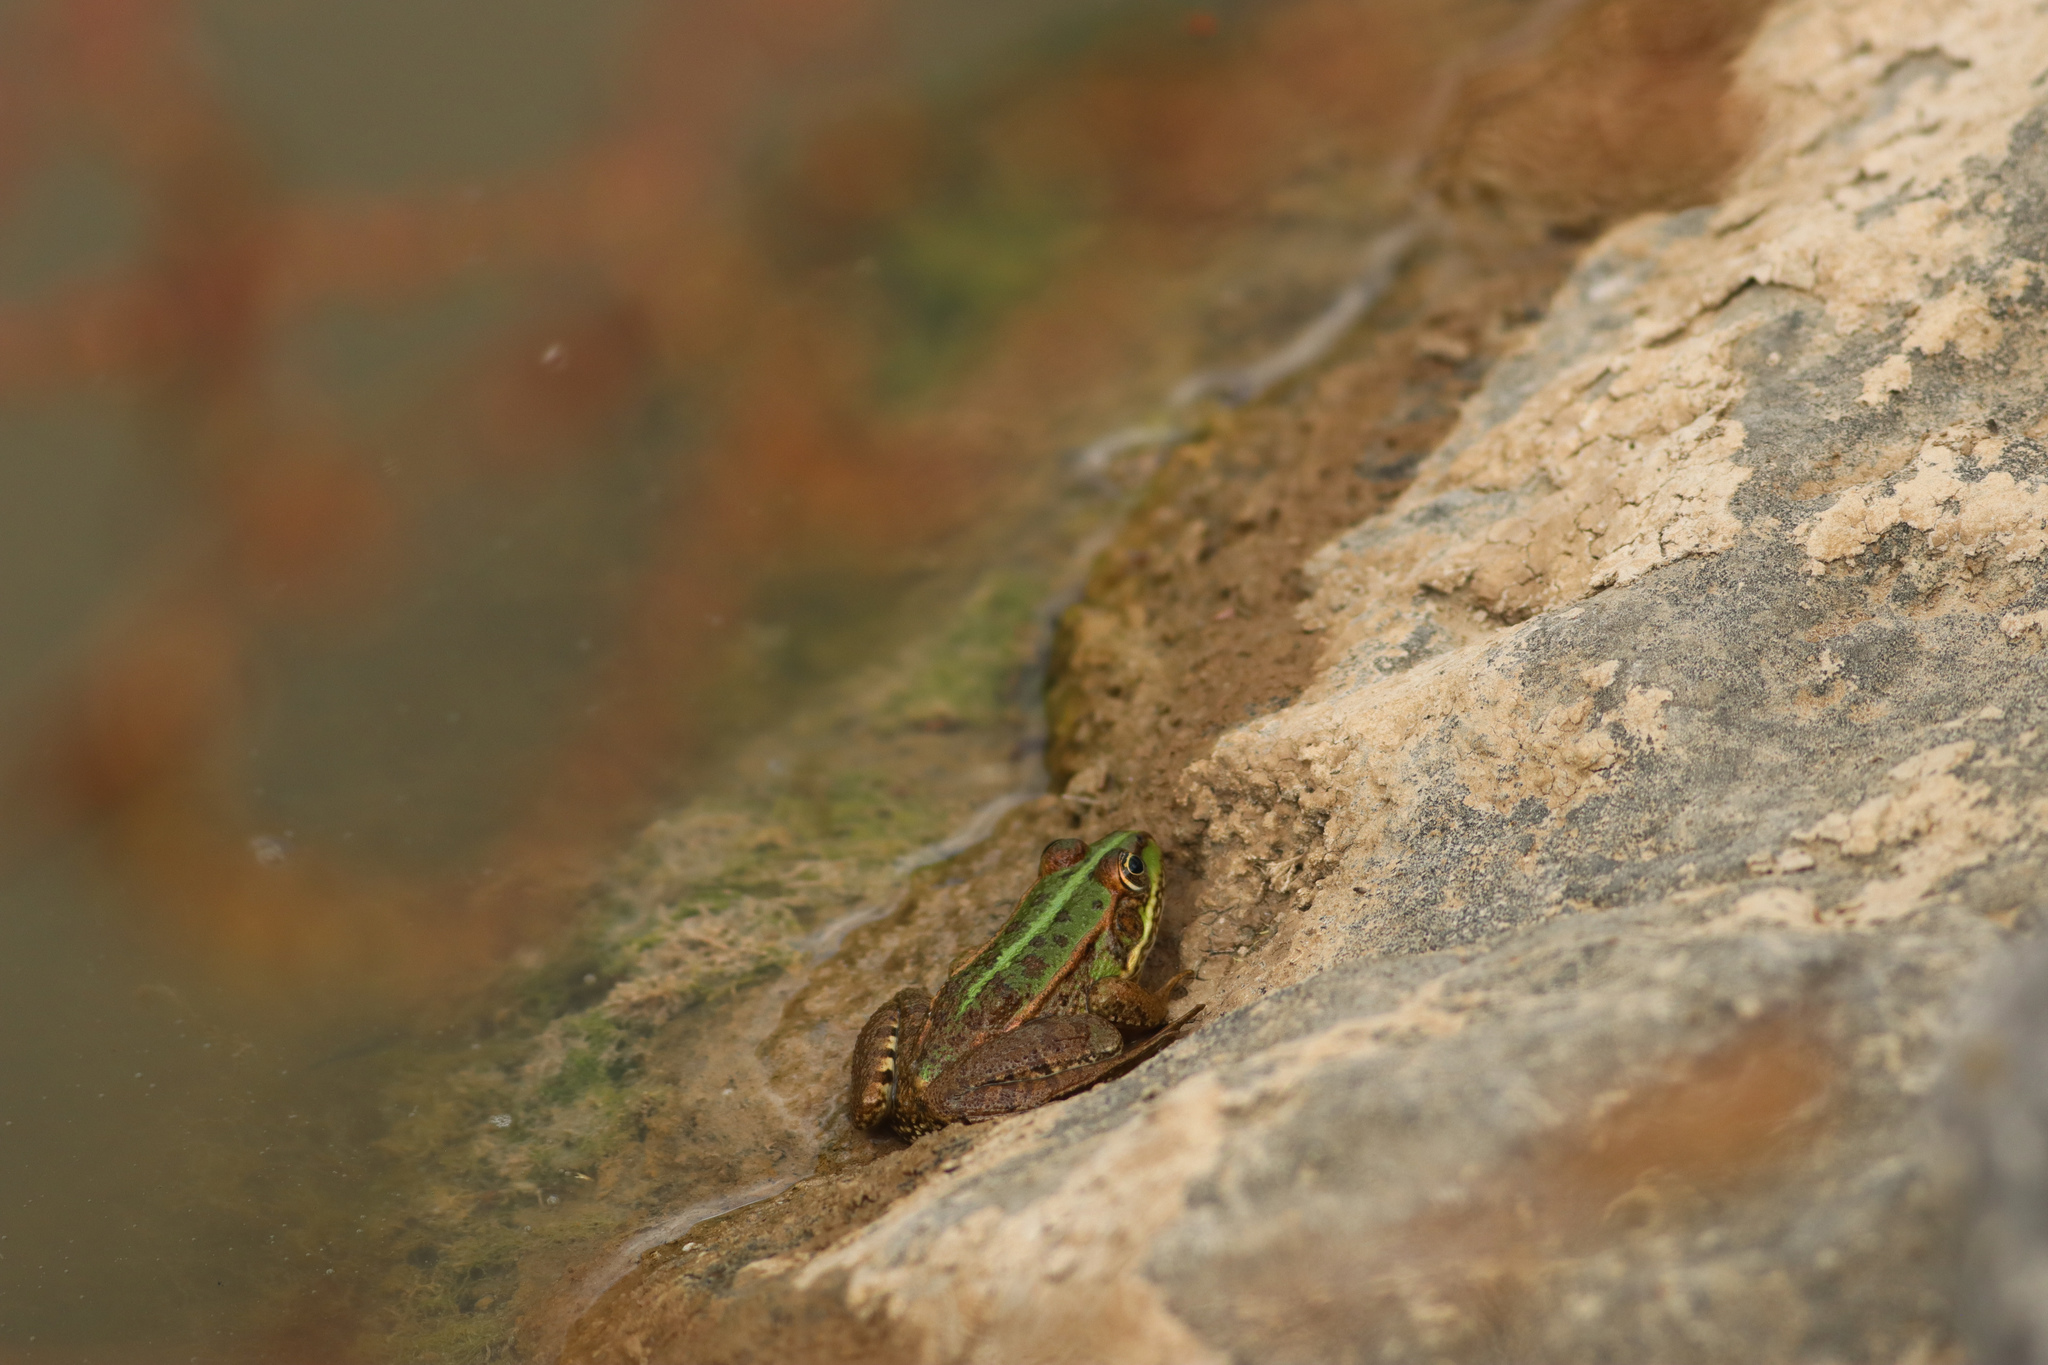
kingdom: Animalia
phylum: Chordata
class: Amphibia
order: Anura
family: Ranidae
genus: Pelophylax
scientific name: Pelophylax ridibundus
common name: Marsh frog
